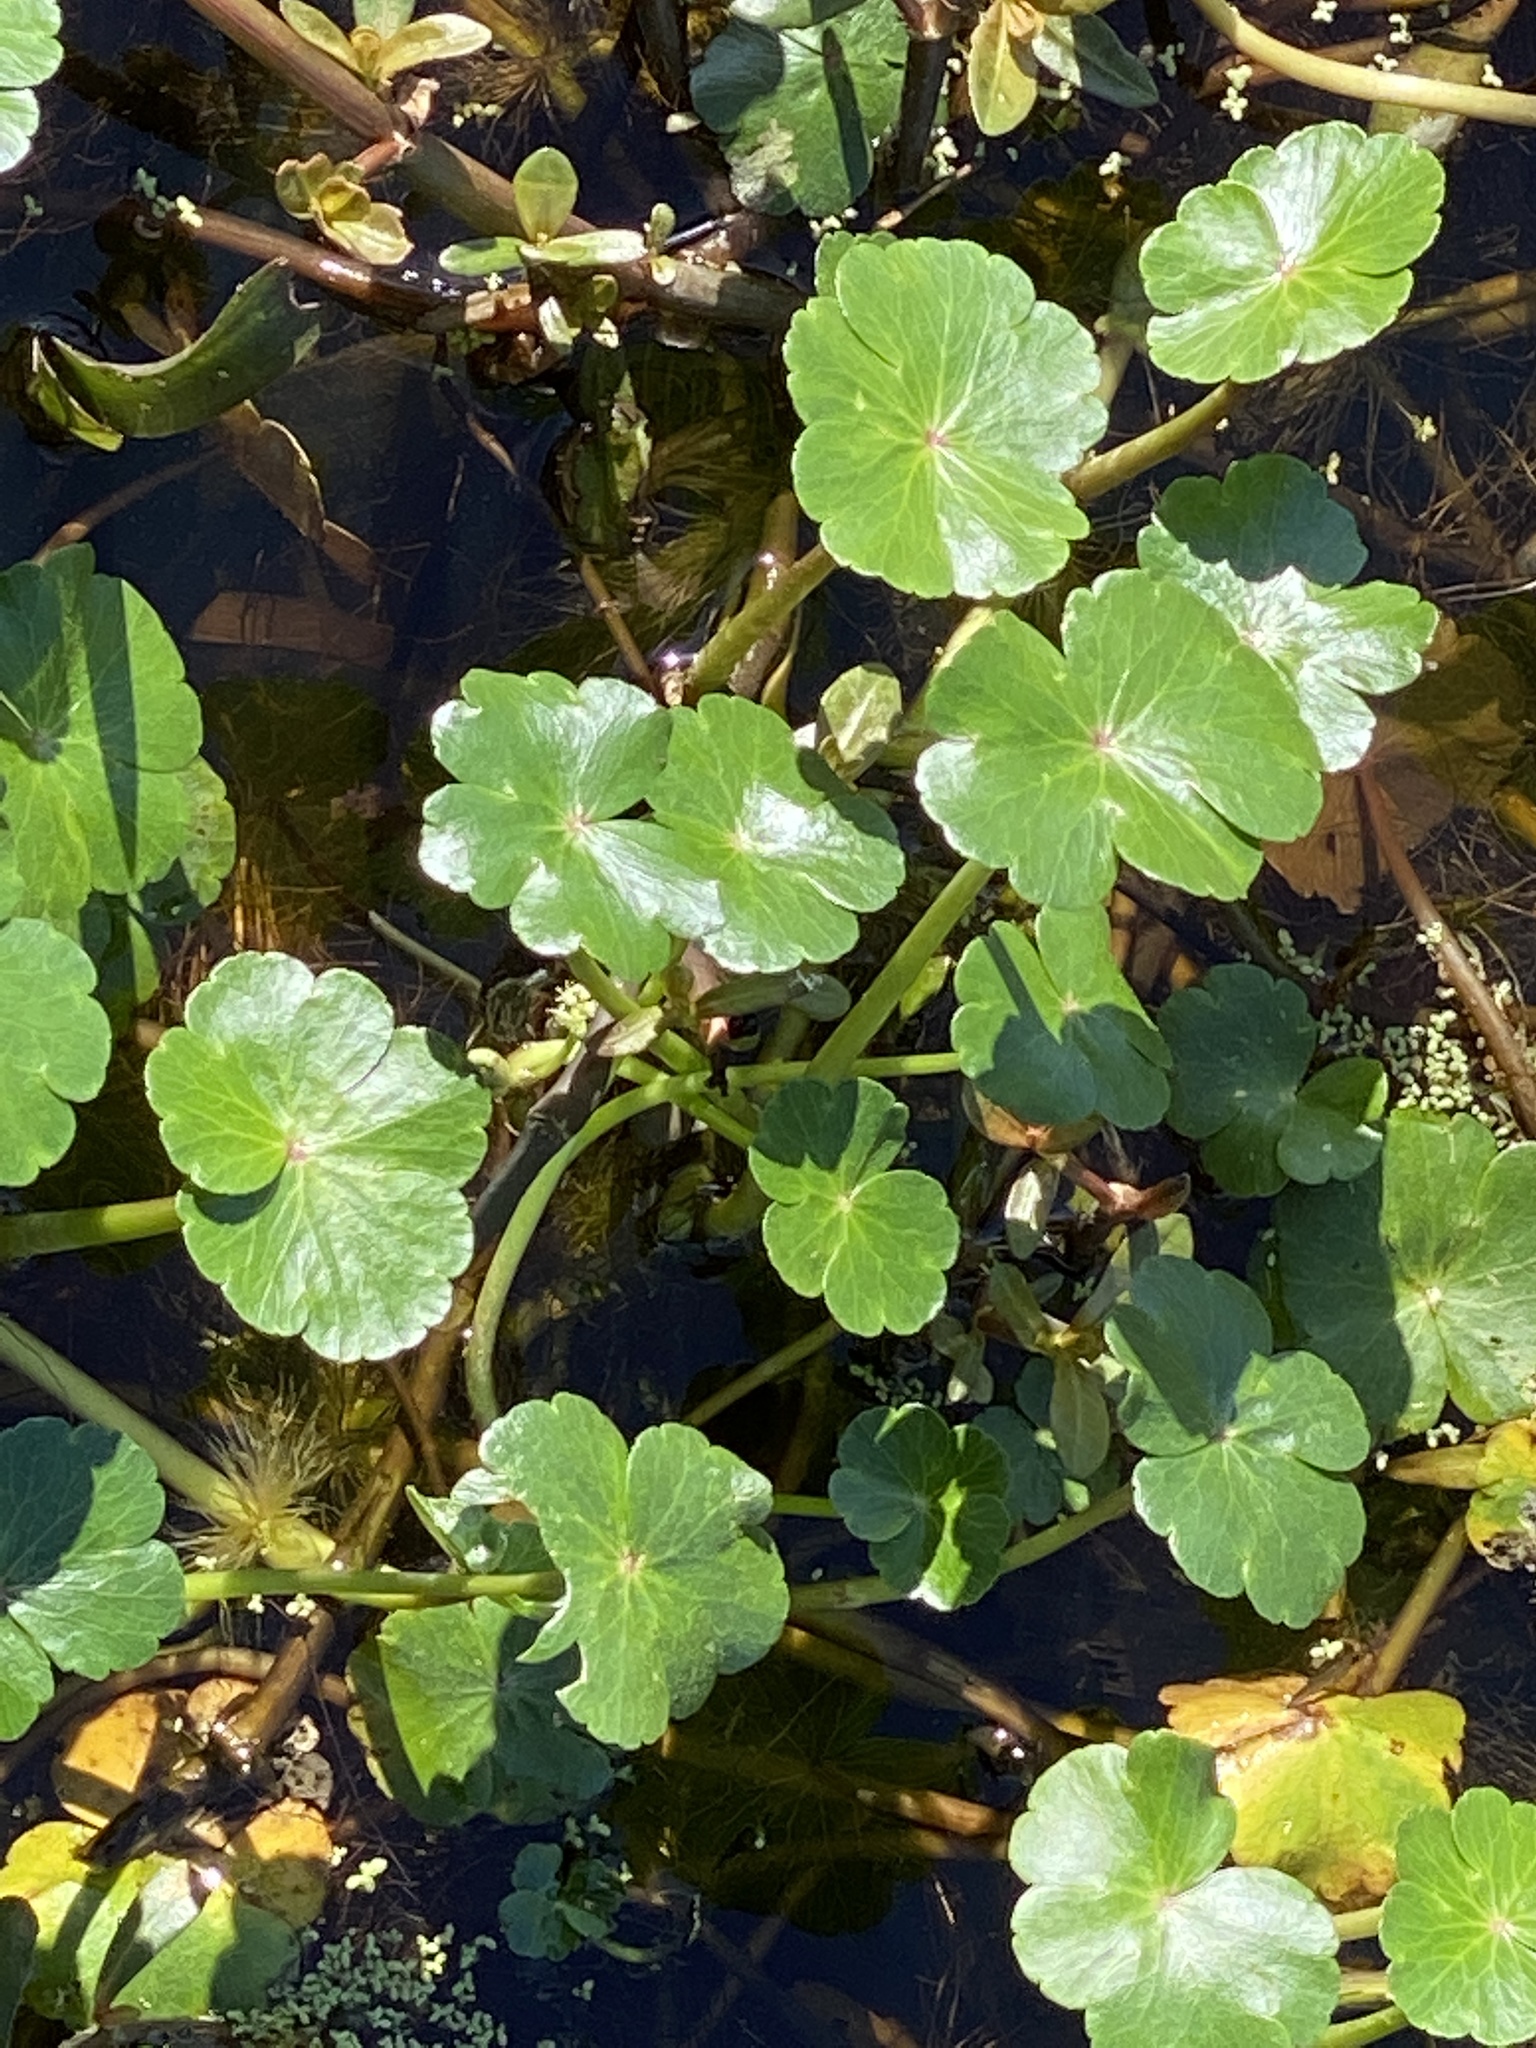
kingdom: Plantae
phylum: Tracheophyta
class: Magnoliopsida
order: Apiales
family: Araliaceae
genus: Hydrocotyle
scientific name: Hydrocotyle ranunculoides
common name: Floating pennywort
